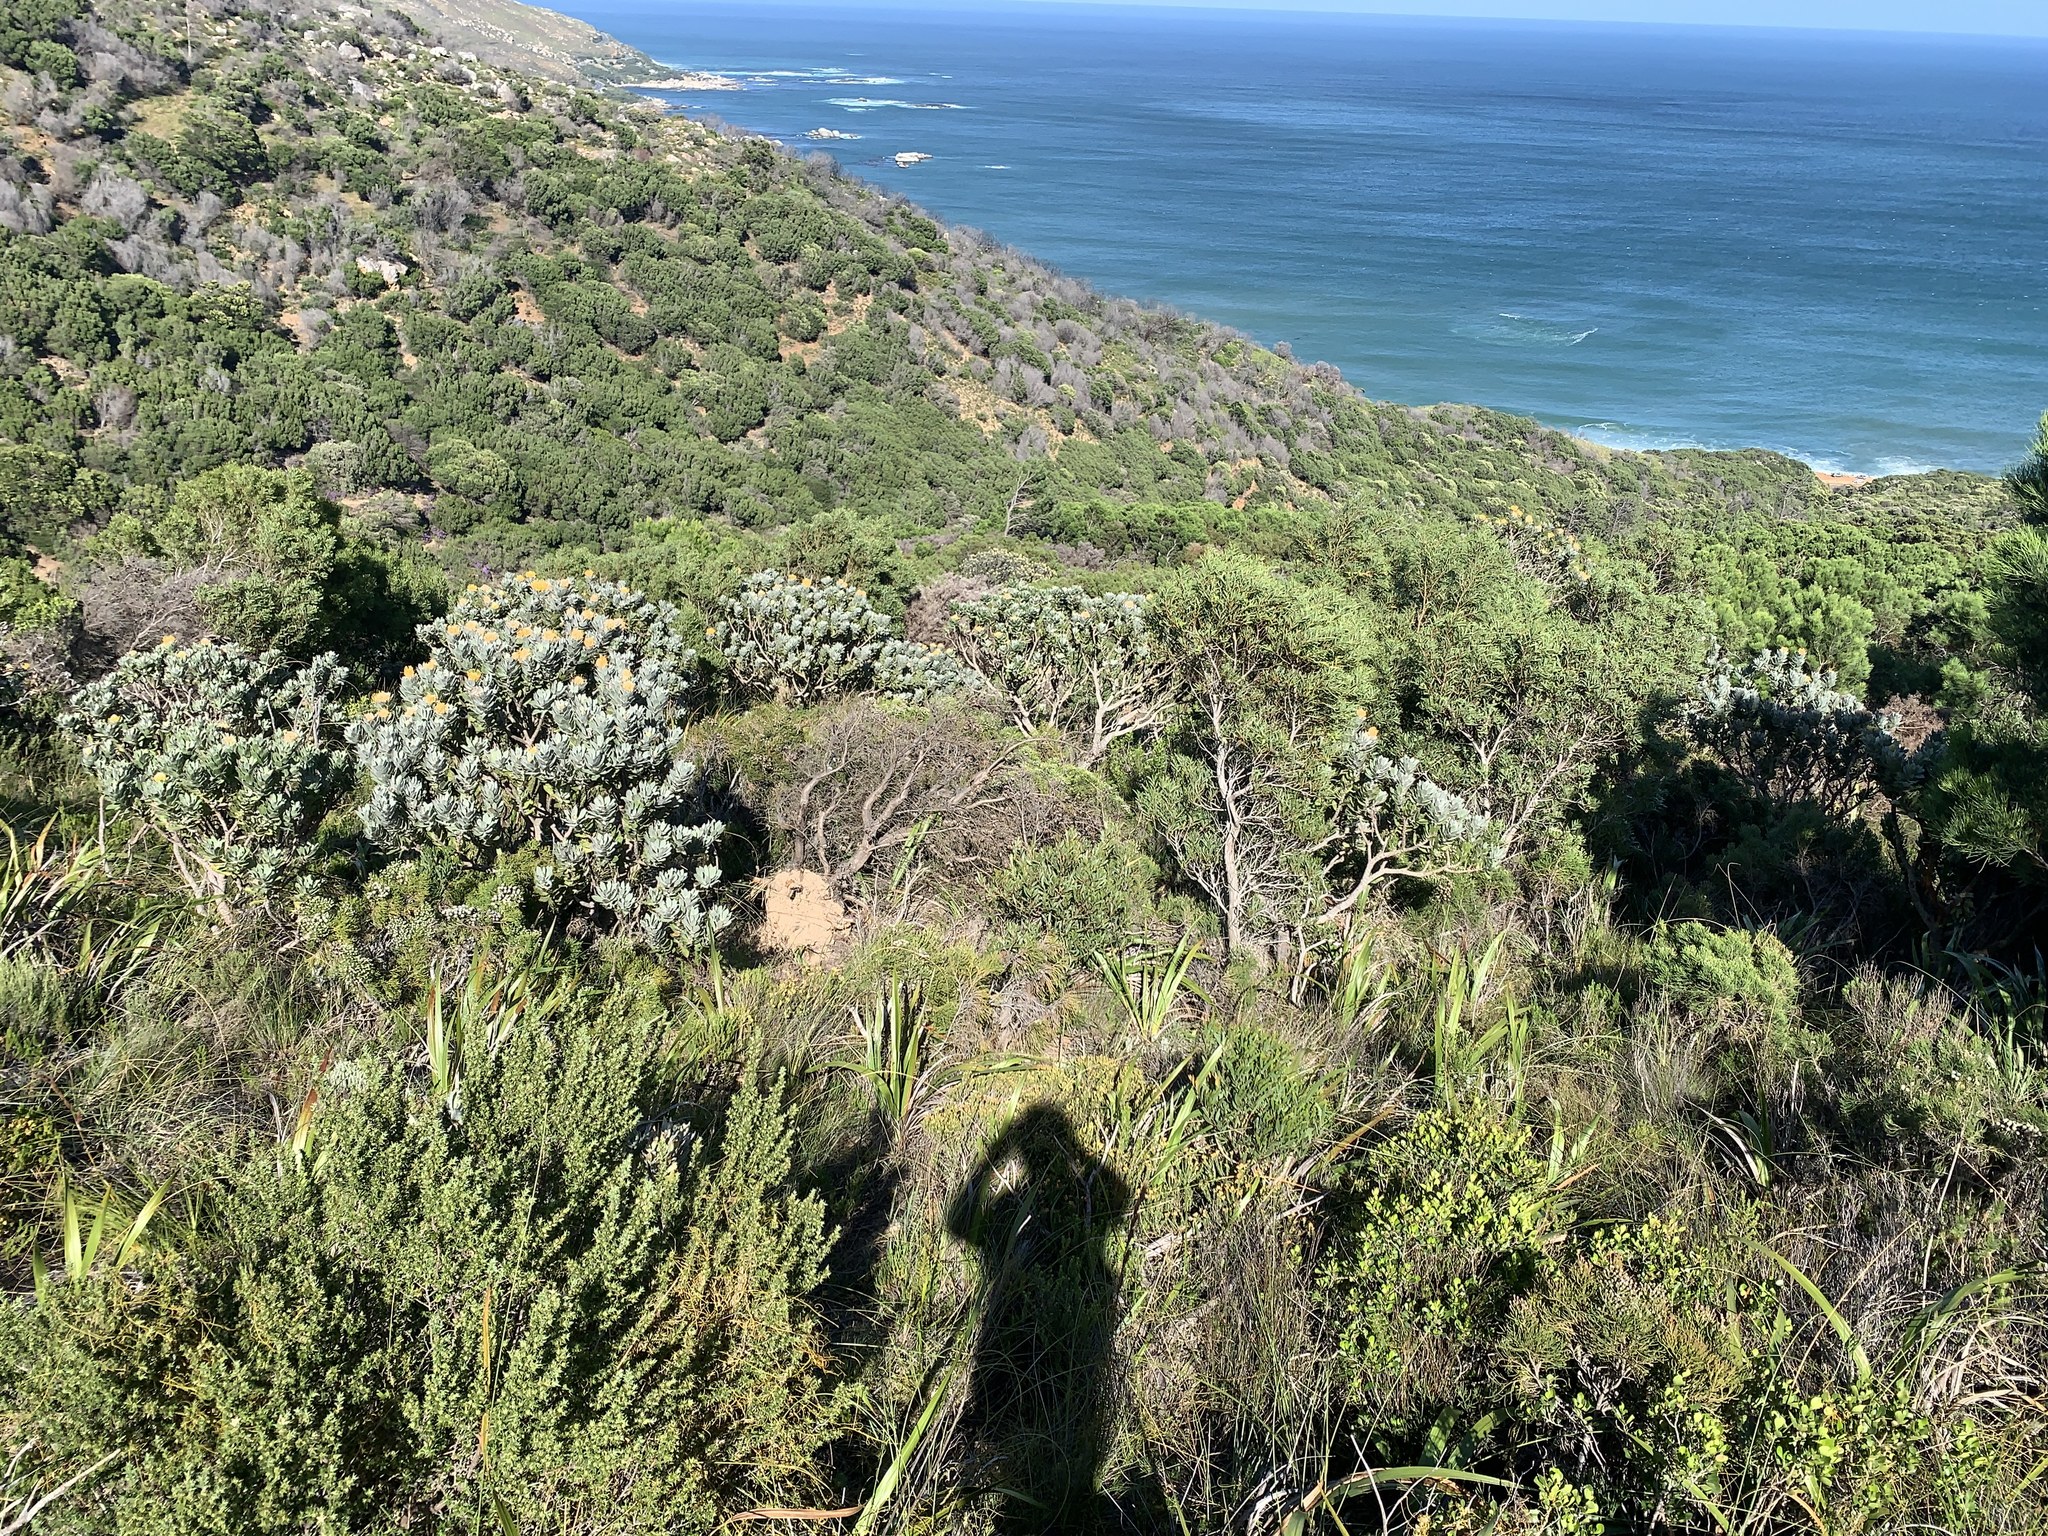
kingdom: Plantae
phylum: Tracheophyta
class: Magnoliopsida
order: Proteales
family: Proteaceae
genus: Leucospermum
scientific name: Leucospermum conocarpodendron
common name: Tree pincushion
